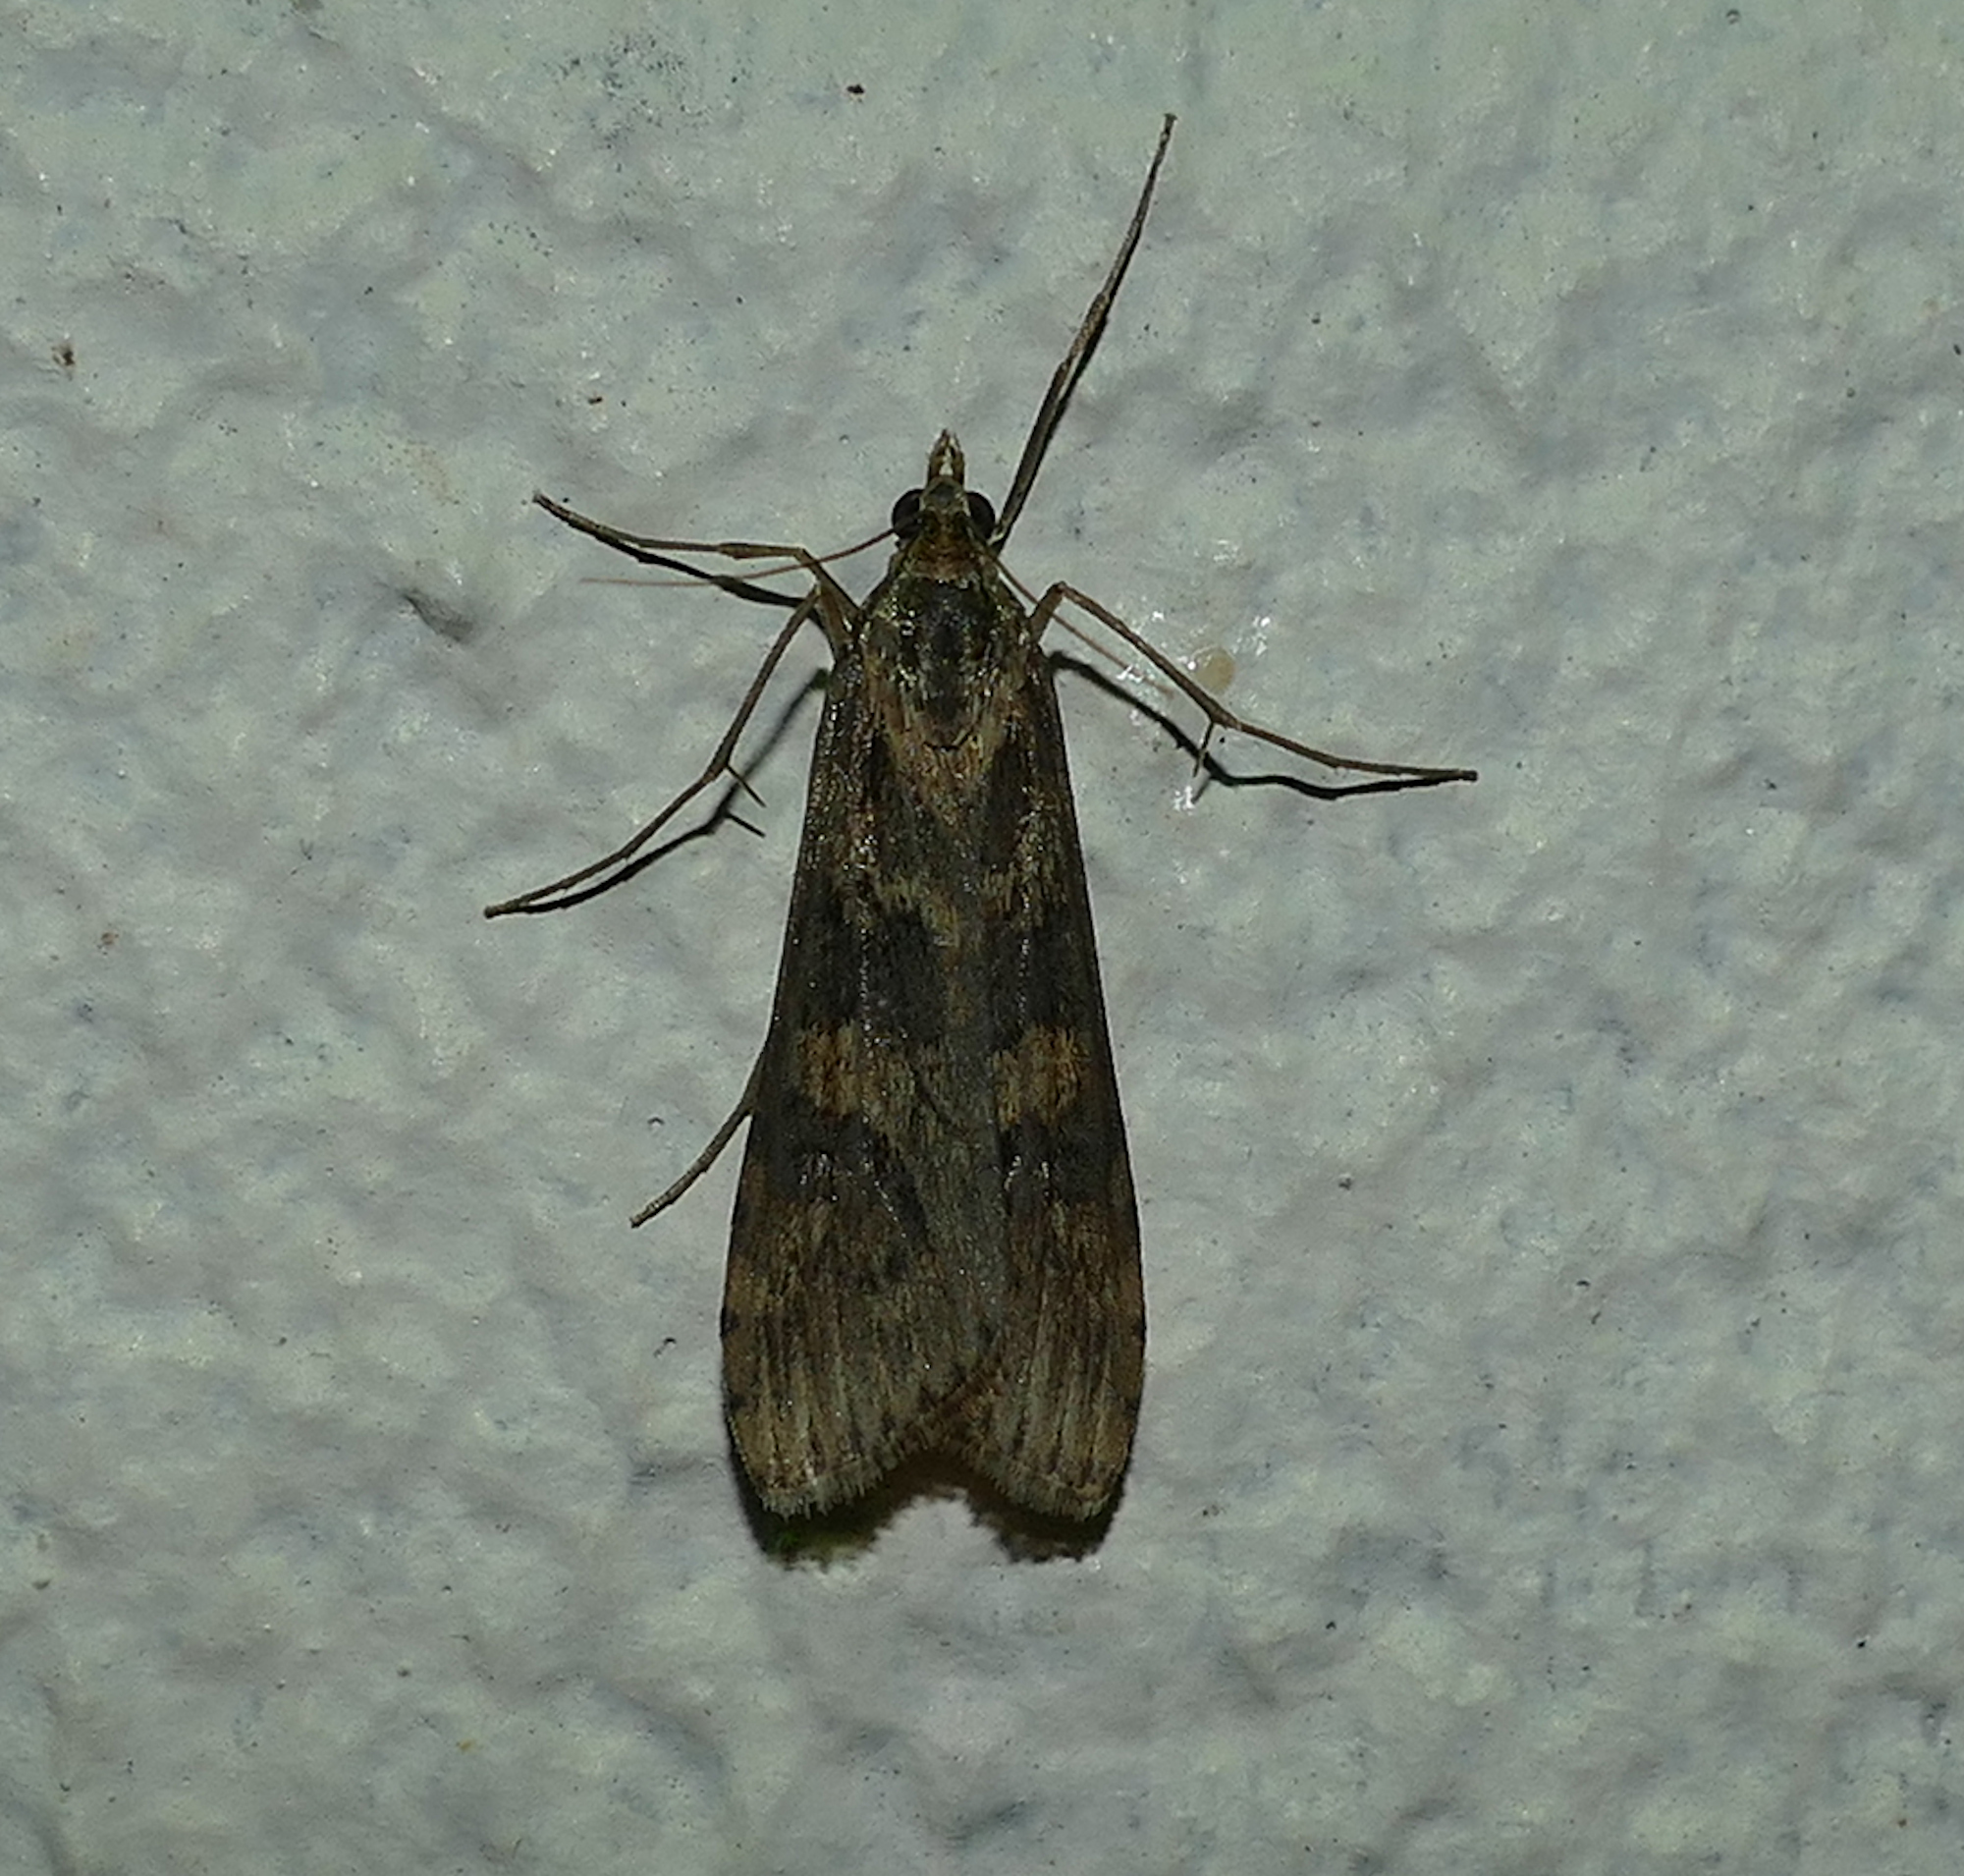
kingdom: Animalia
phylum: Arthropoda
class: Insecta
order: Lepidoptera
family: Crambidae
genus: Nomophila
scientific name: Nomophila nearctica
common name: American rush veneer
